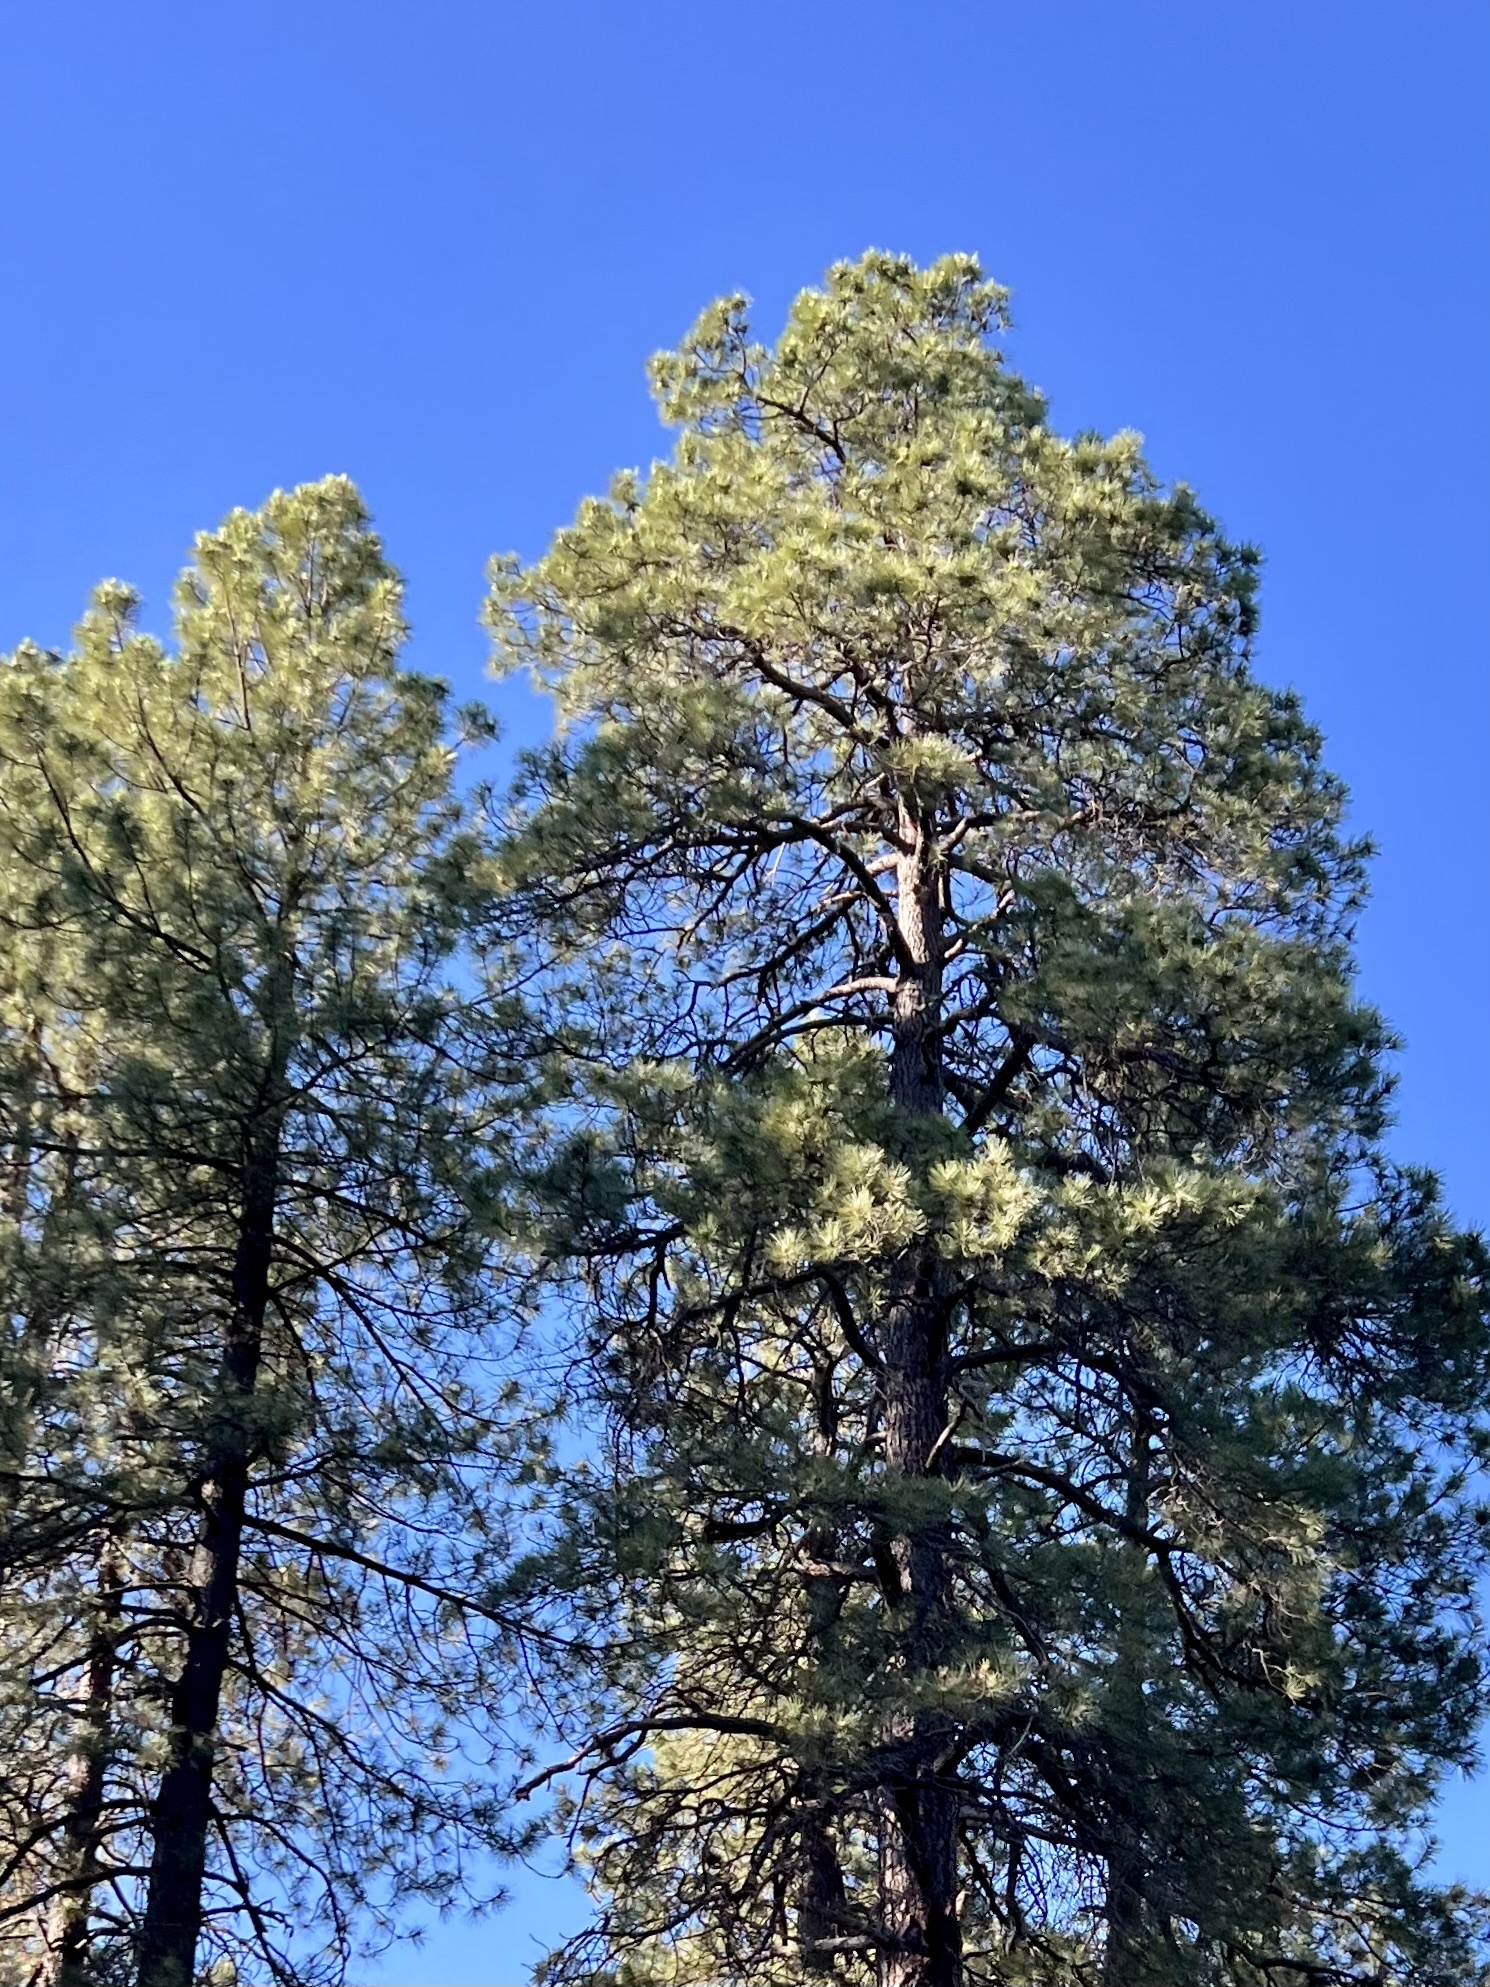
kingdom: Plantae
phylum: Tracheophyta
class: Pinopsida
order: Pinales
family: Pinaceae
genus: Pinus
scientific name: Pinus ponderosa
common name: Western yellow-pine
